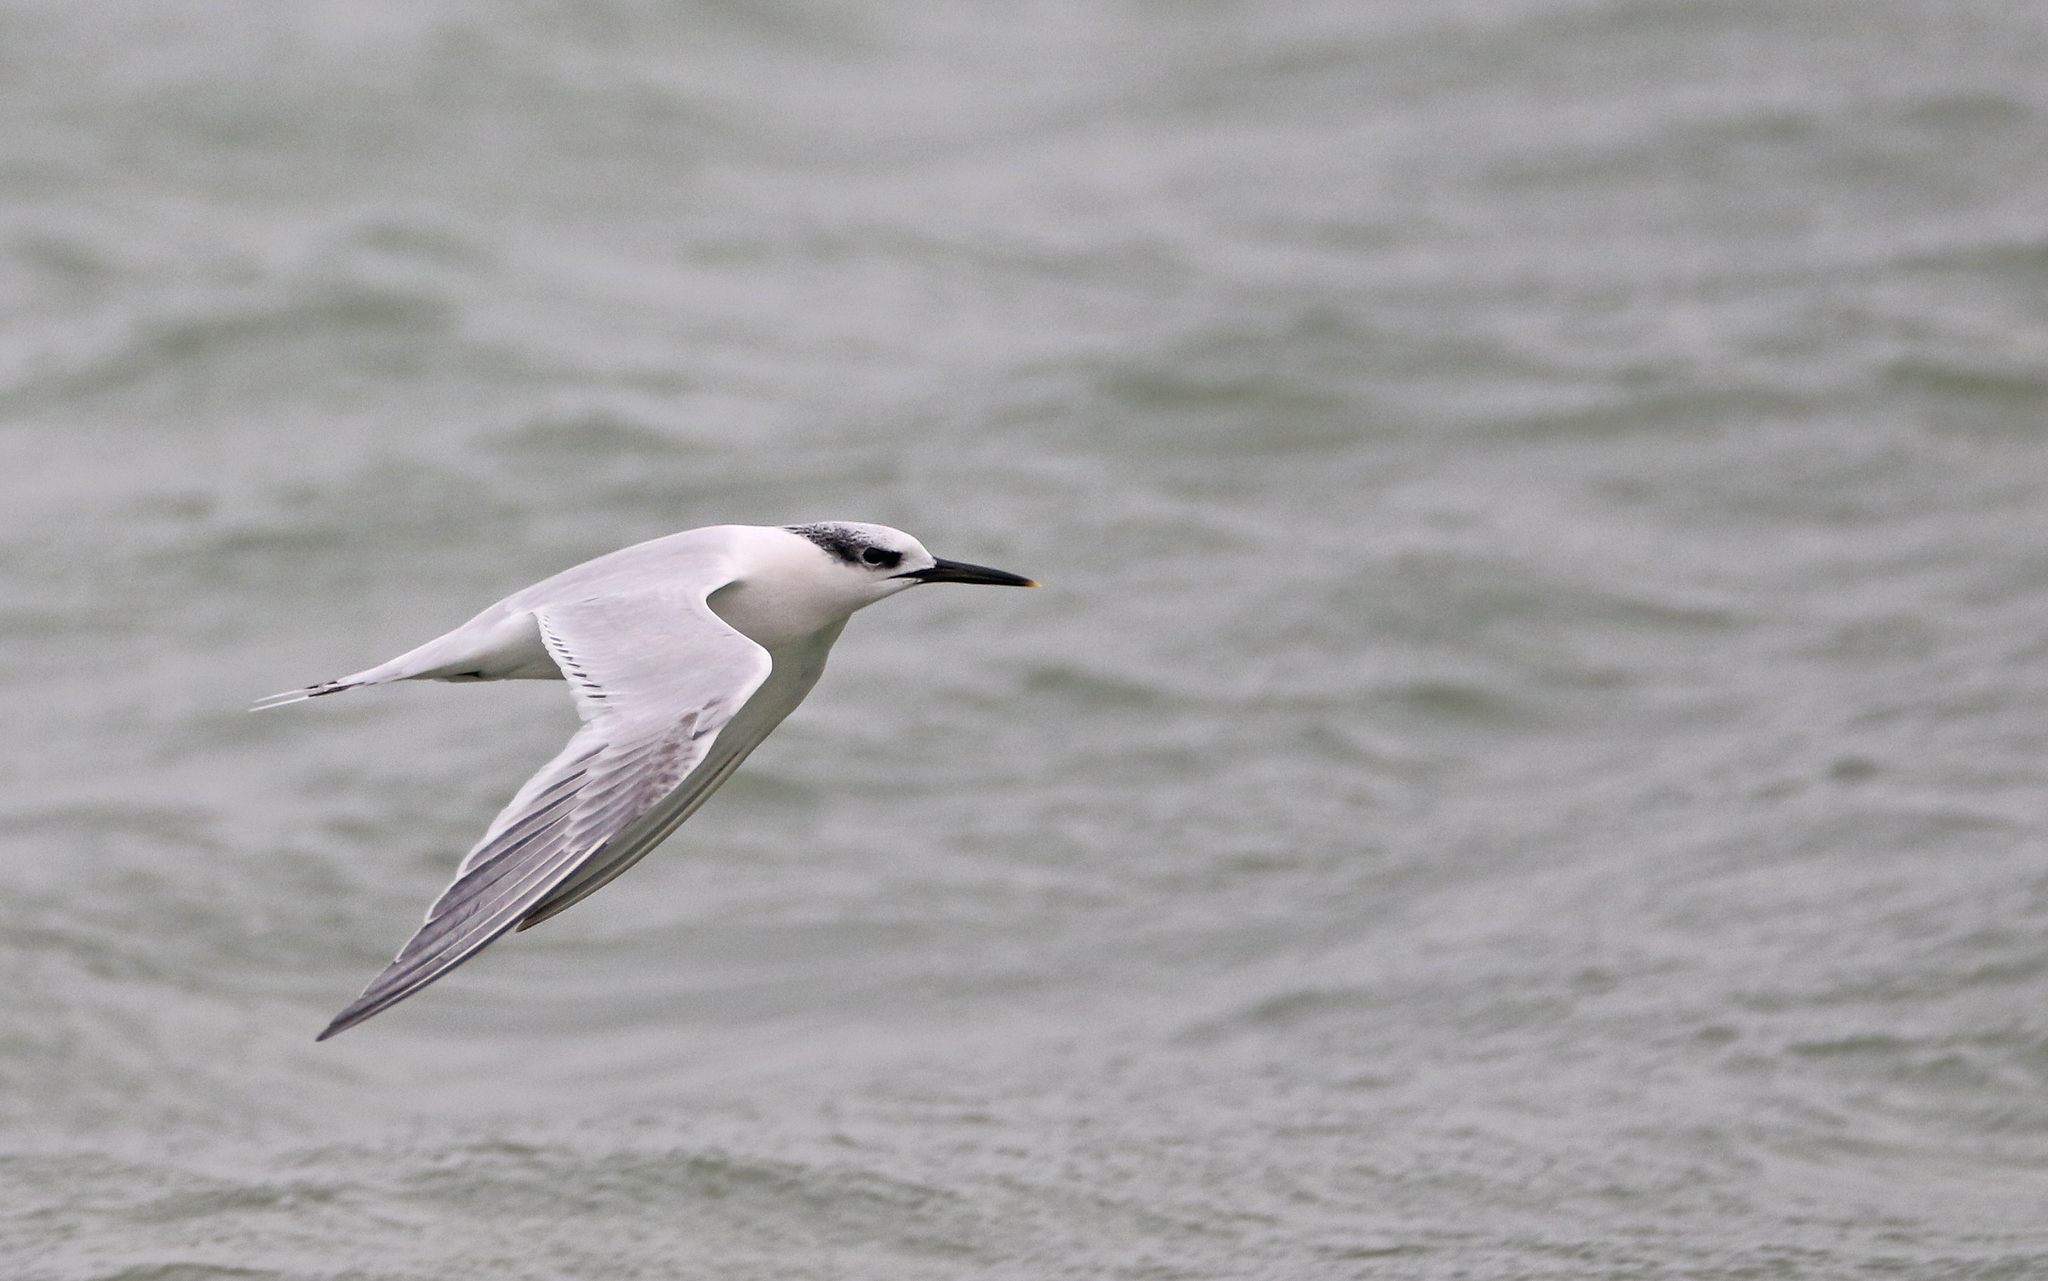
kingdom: Animalia
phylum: Chordata
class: Aves
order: Charadriiformes
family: Laridae
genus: Thalasseus
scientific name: Thalasseus sandvicensis
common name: Sandwich tern
